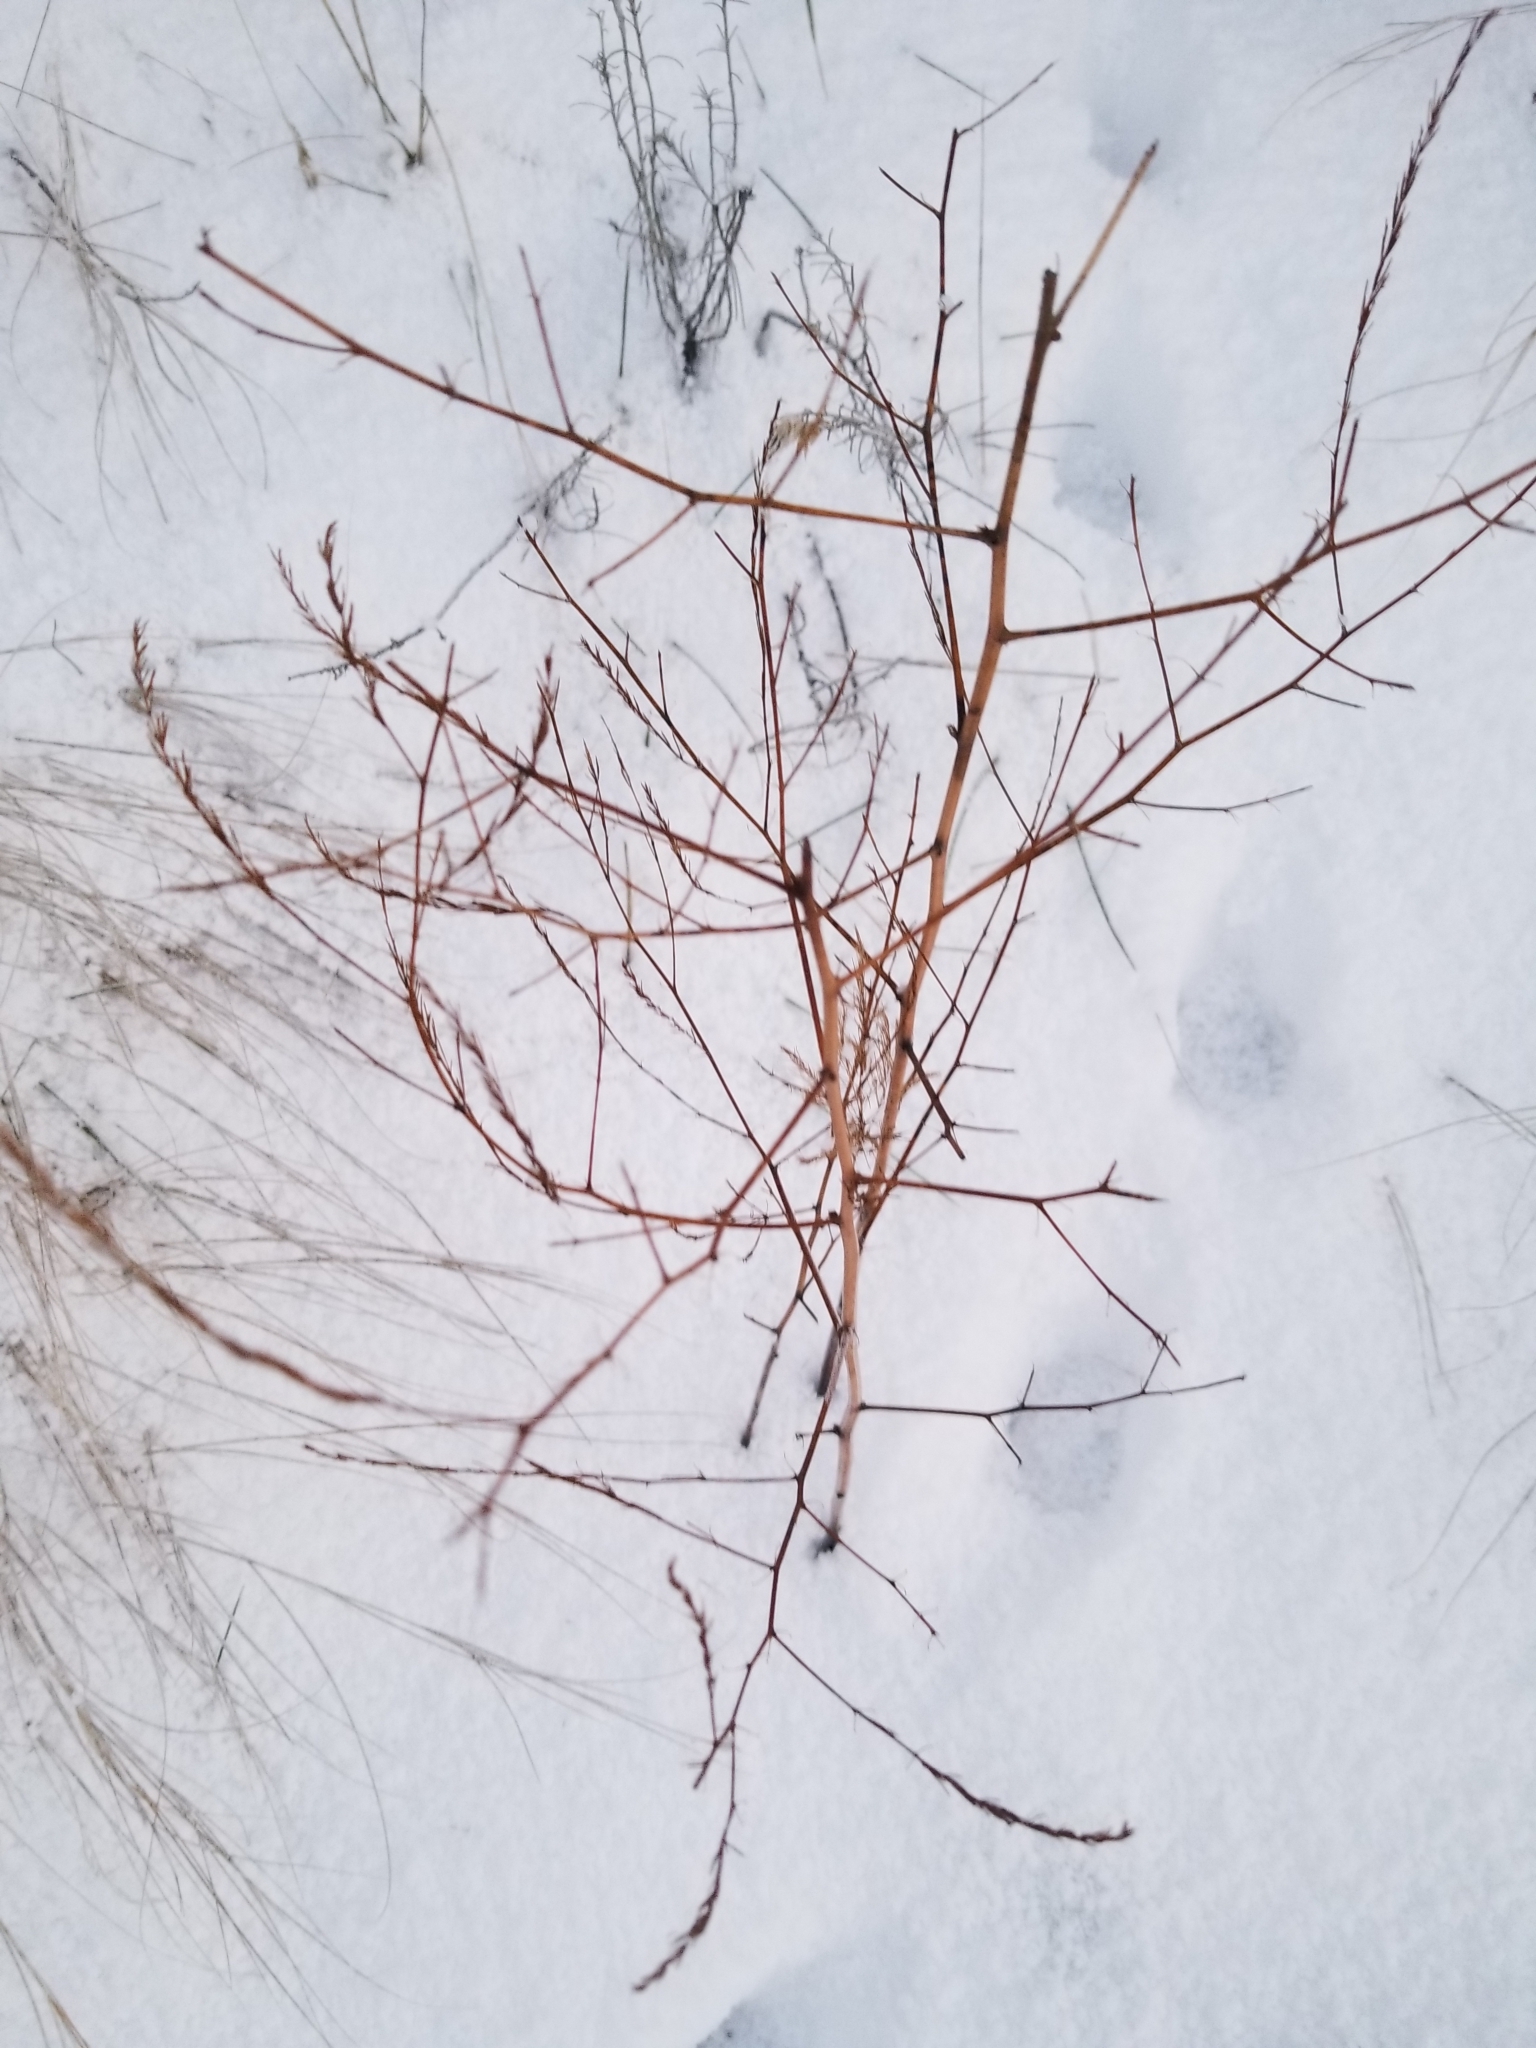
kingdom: Plantae
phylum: Tracheophyta
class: Liliopsida
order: Asparagales
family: Asparagaceae
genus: Asparagus
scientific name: Asparagus officinalis
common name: Garden asparagus
